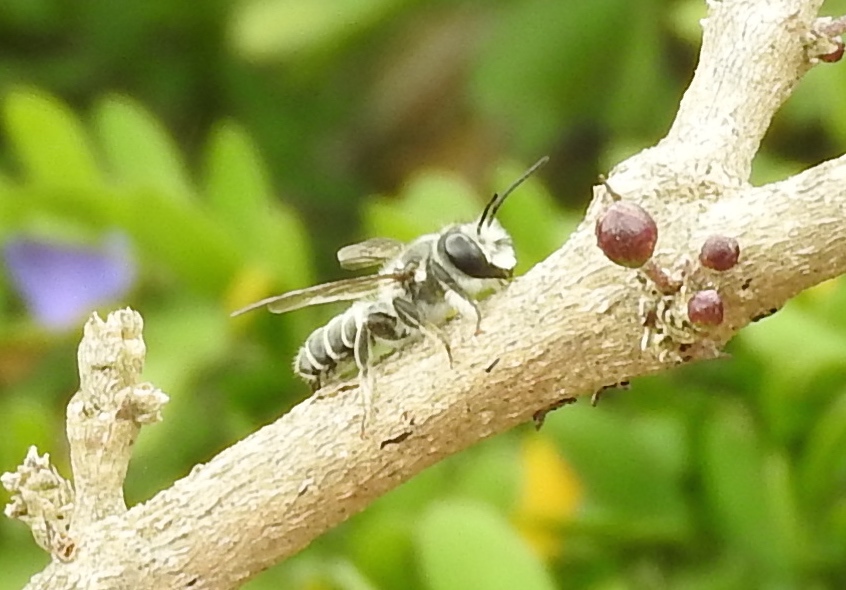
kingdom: Animalia
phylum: Arthropoda
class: Insecta
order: Hymenoptera
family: Megachilidae
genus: Megachile
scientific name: Megachile
